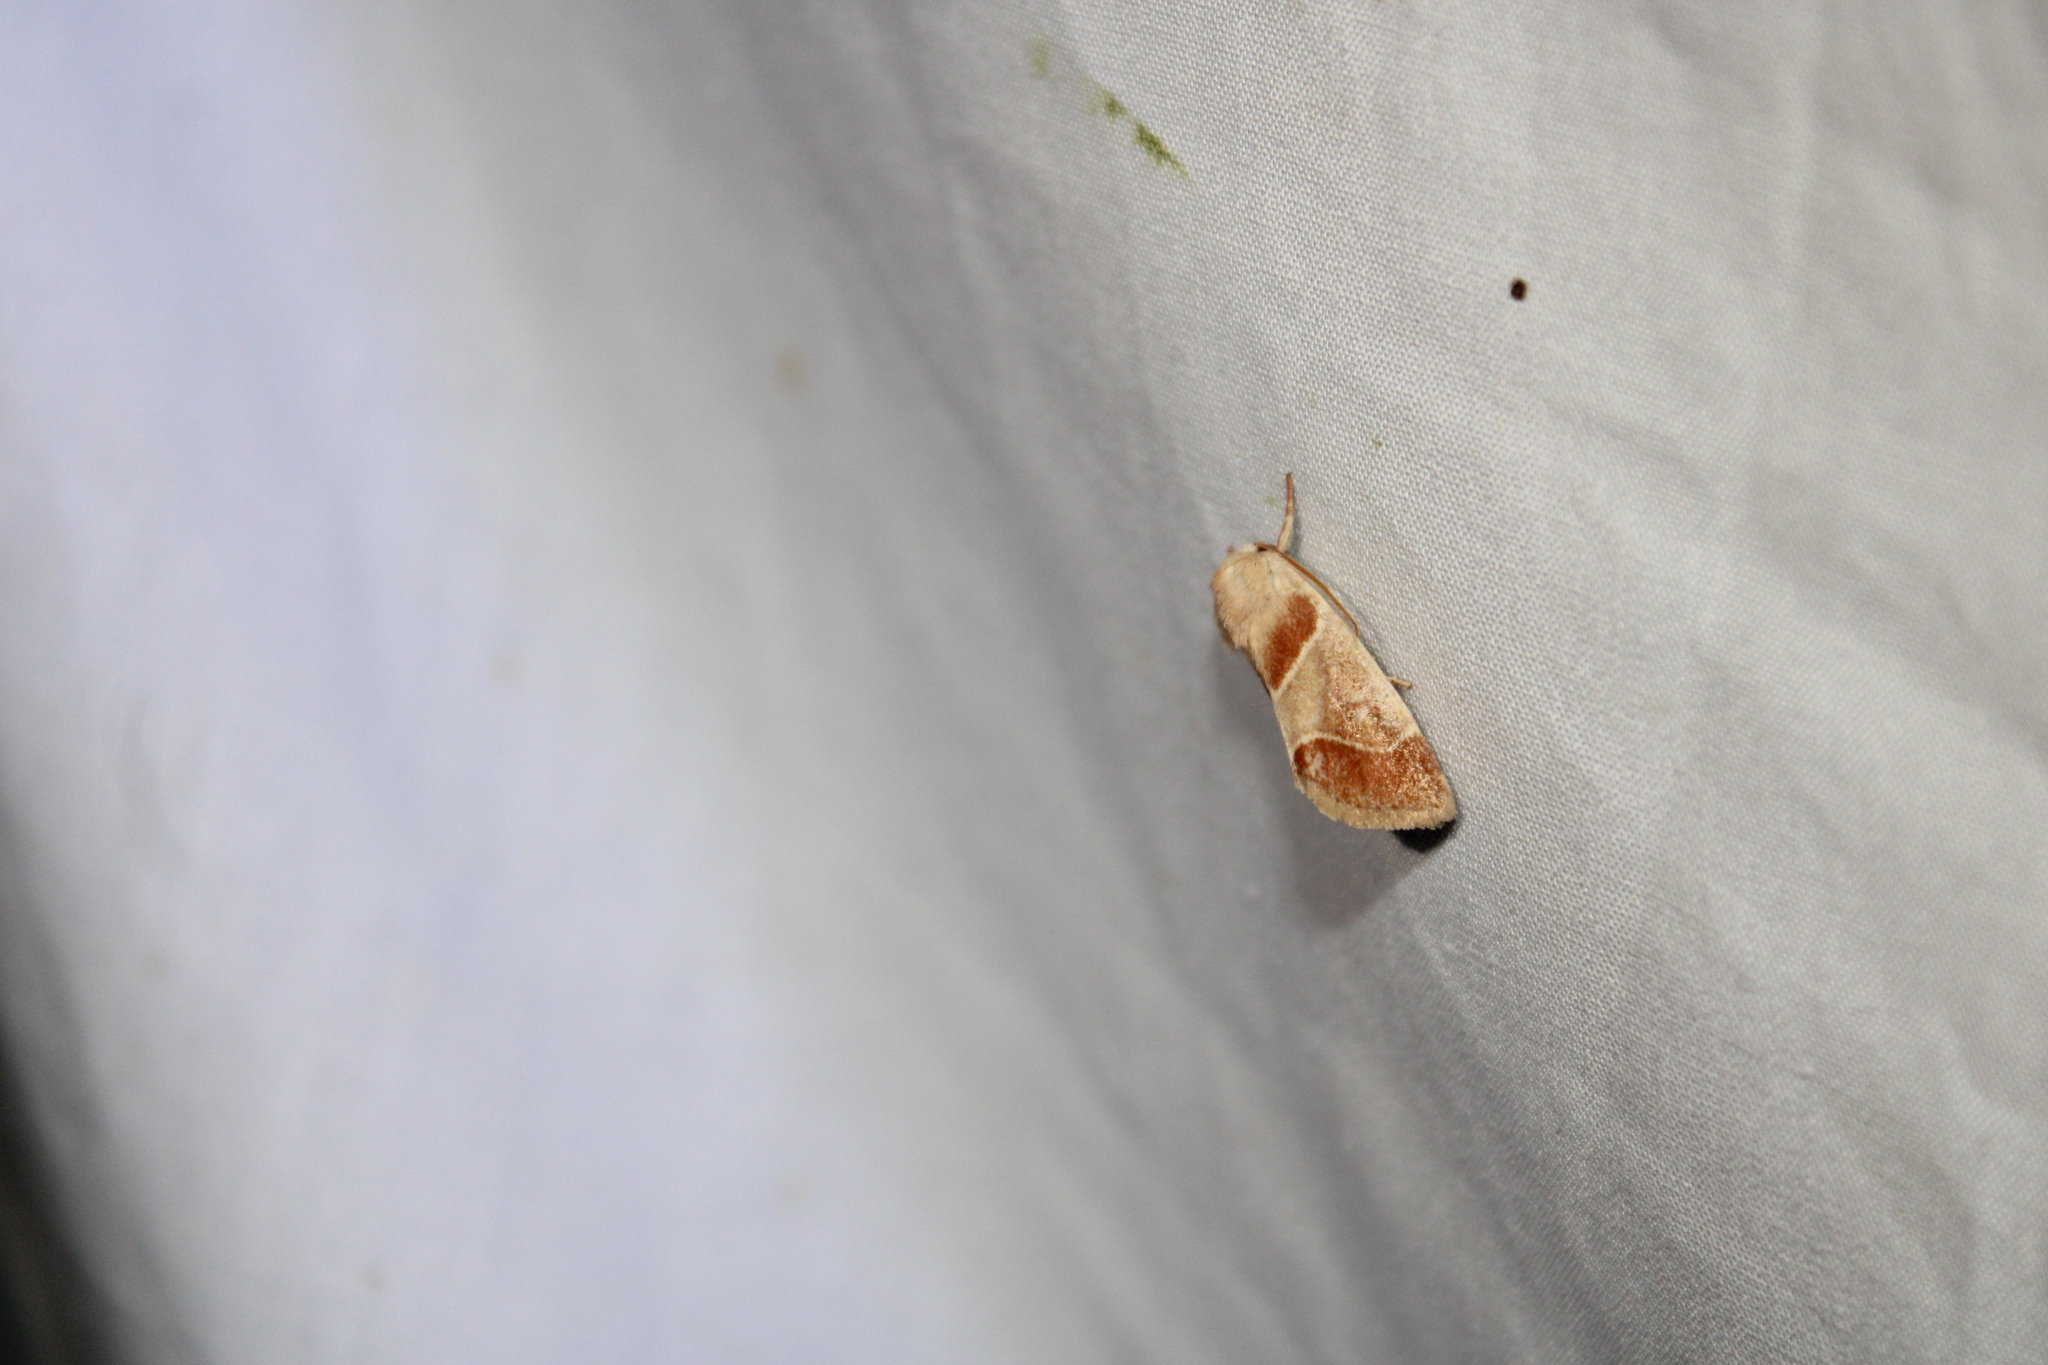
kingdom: Animalia
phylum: Arthropoda
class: Insecta
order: Lepidoptera
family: Noctuidae
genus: Cosmia
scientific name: Cosmia calami
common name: American dun-bar moth
